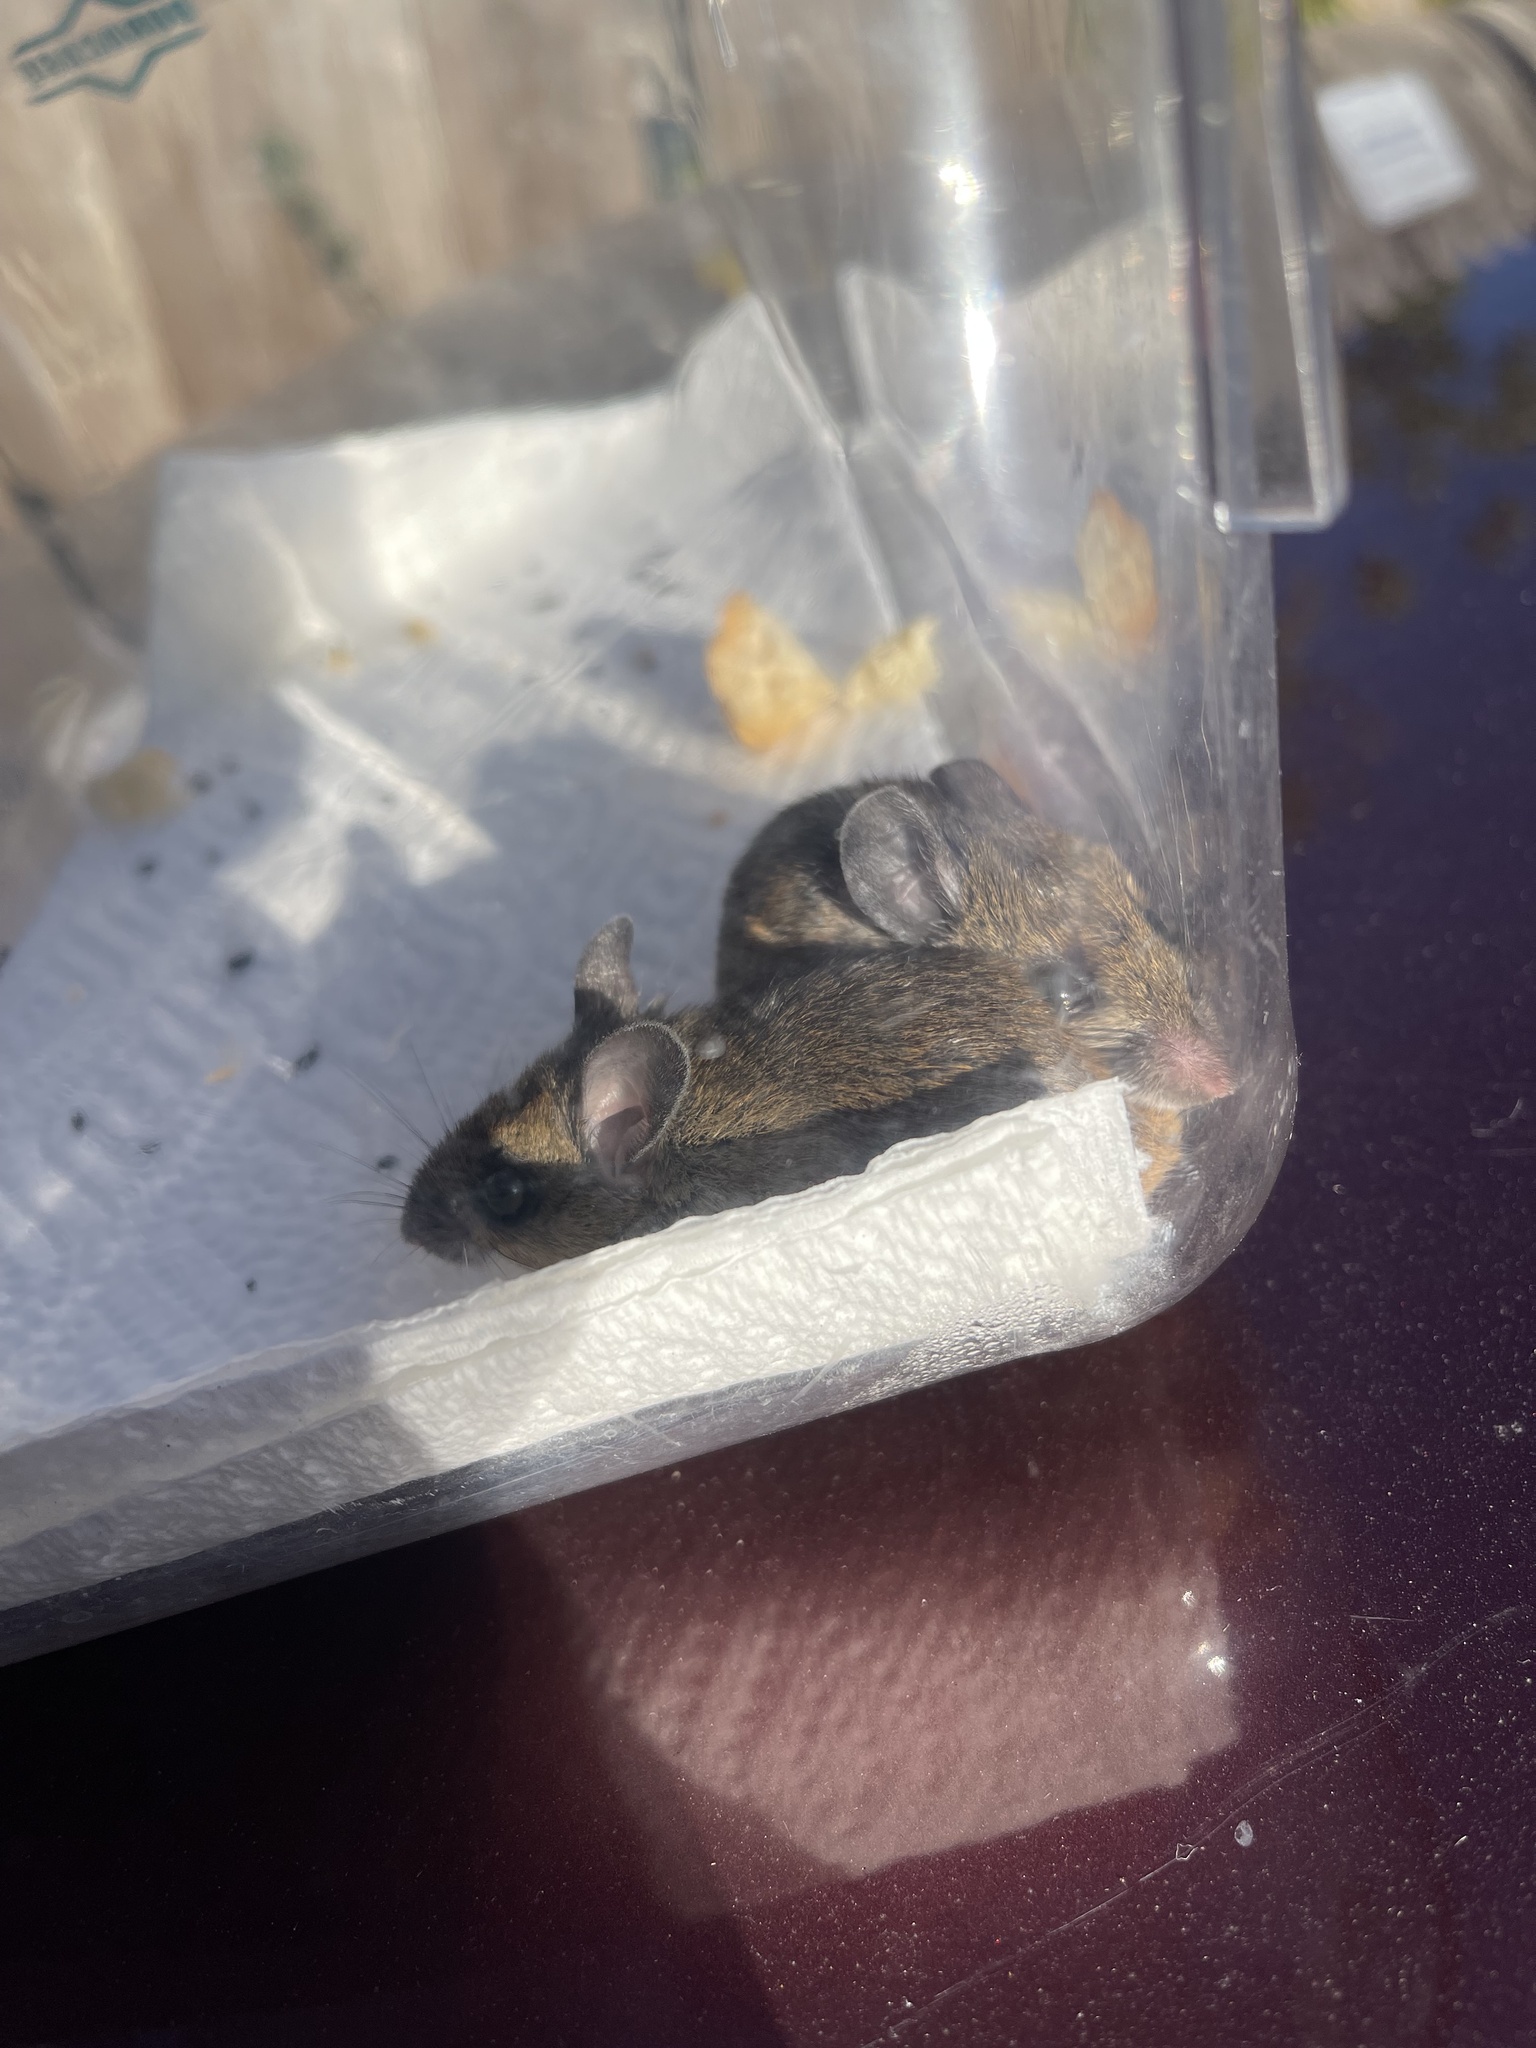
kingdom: Animalia
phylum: Chordata
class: Mammalia
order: Rodentia
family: Cricetidae
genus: Peromyscus
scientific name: Peromyscus maniculatus
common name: Deer mouse
